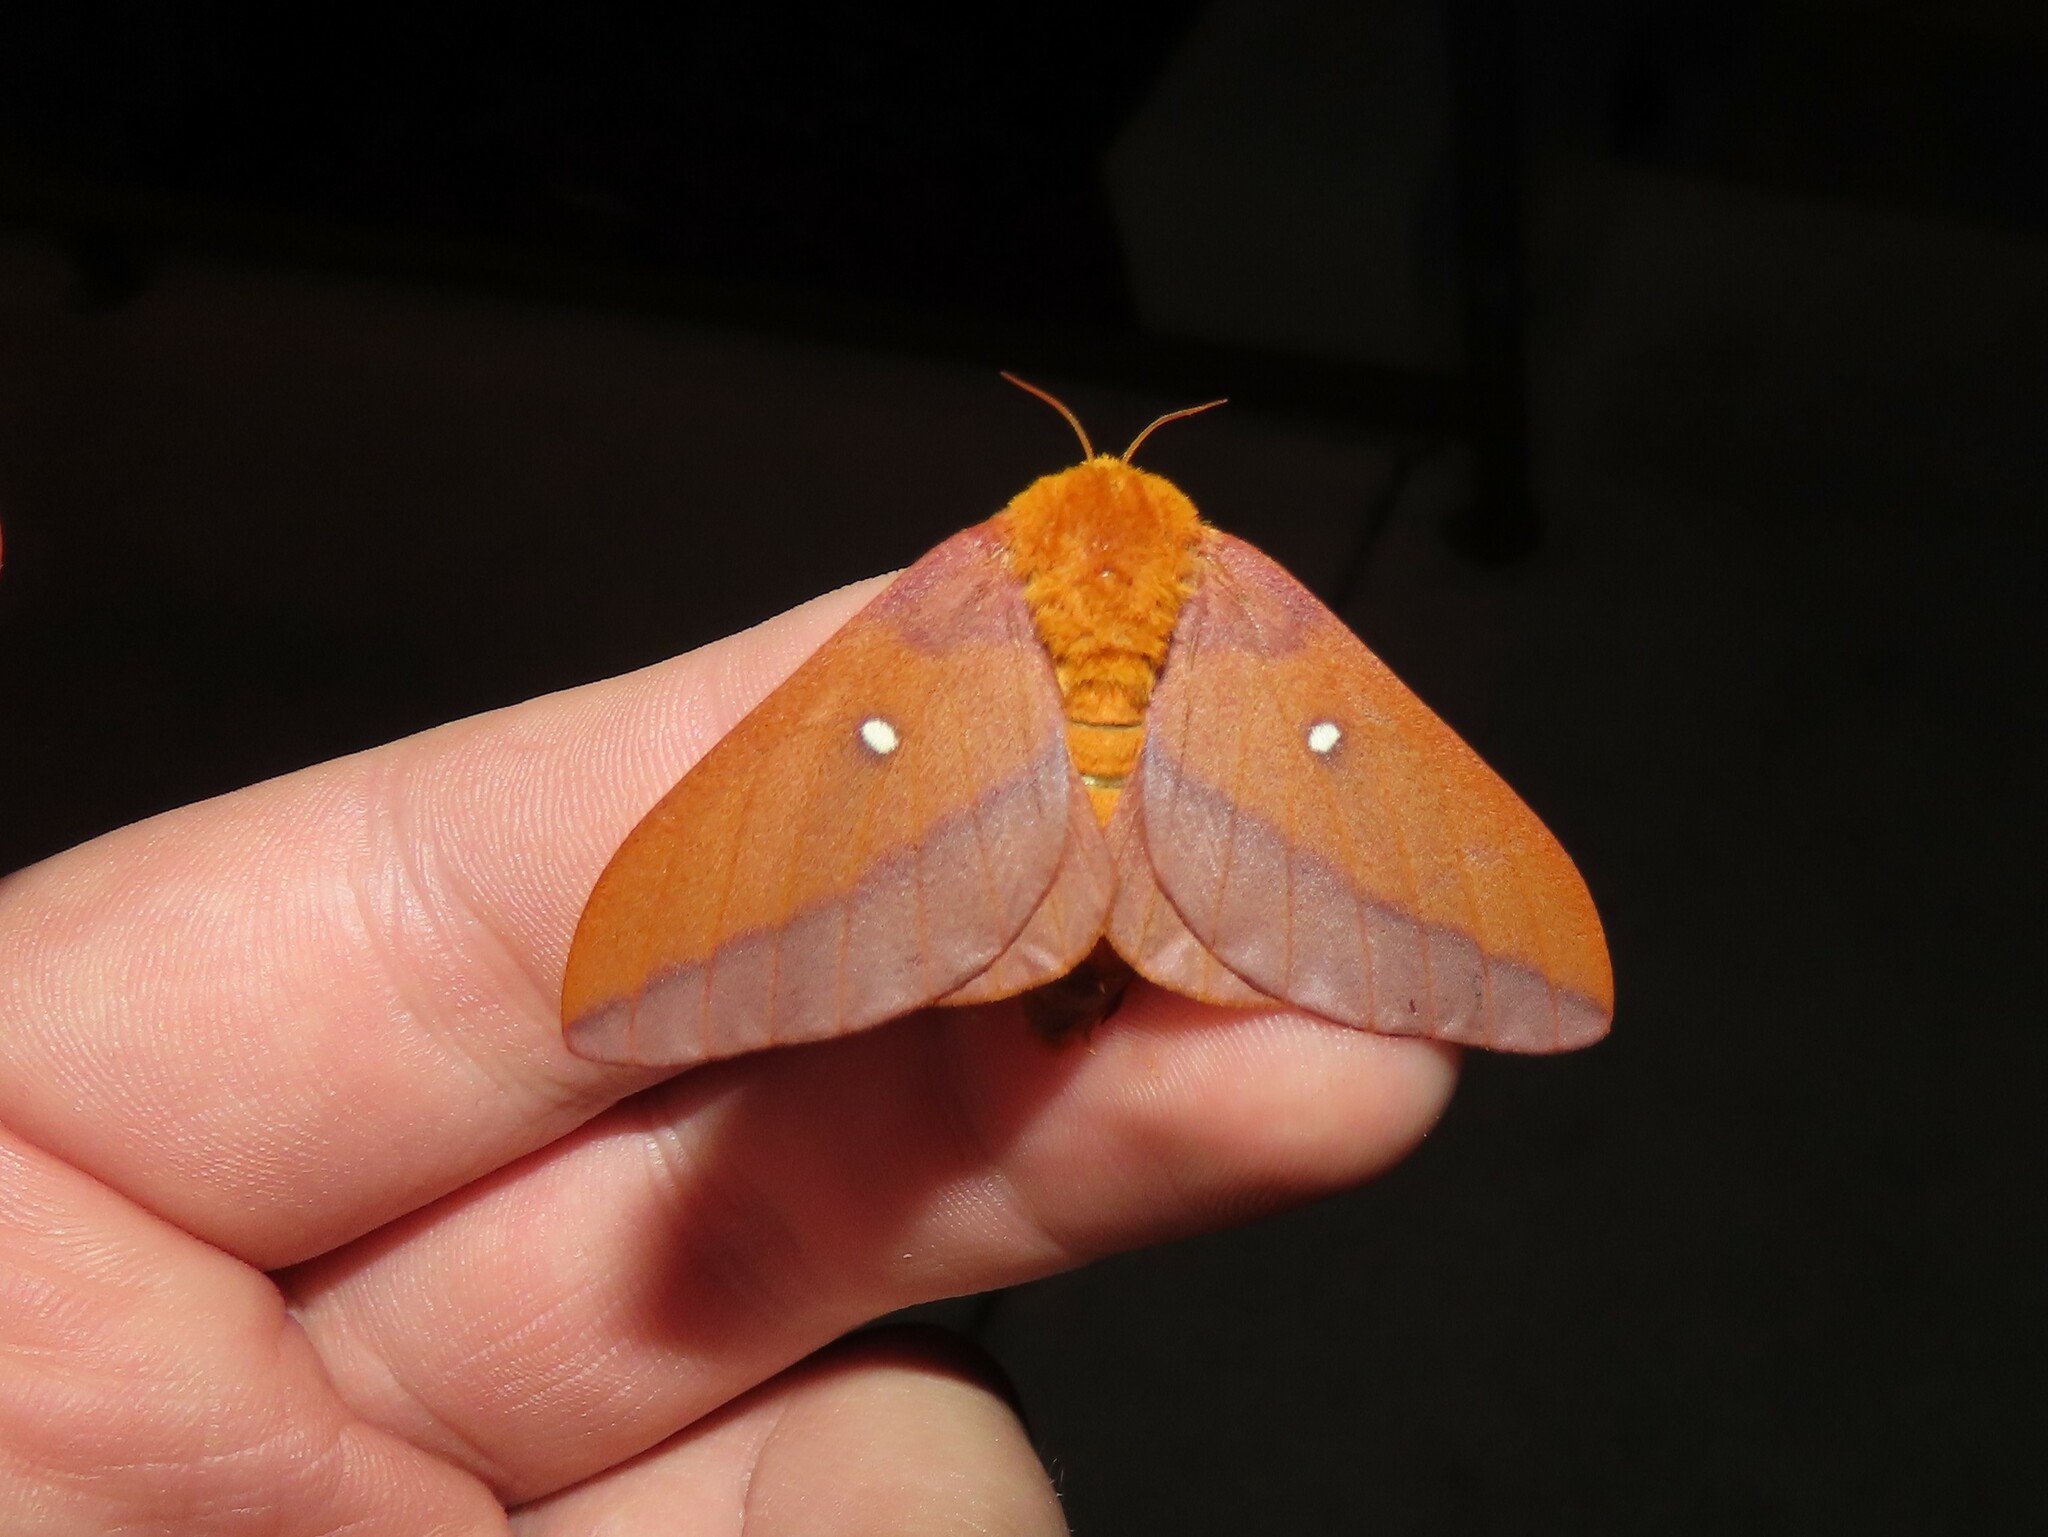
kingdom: Animalia
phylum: Arthropoda
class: Insecta
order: Lepidoptera
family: Saturniidae
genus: Anisota
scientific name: Anisota virginiensis
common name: Pink striped oakworm moth
